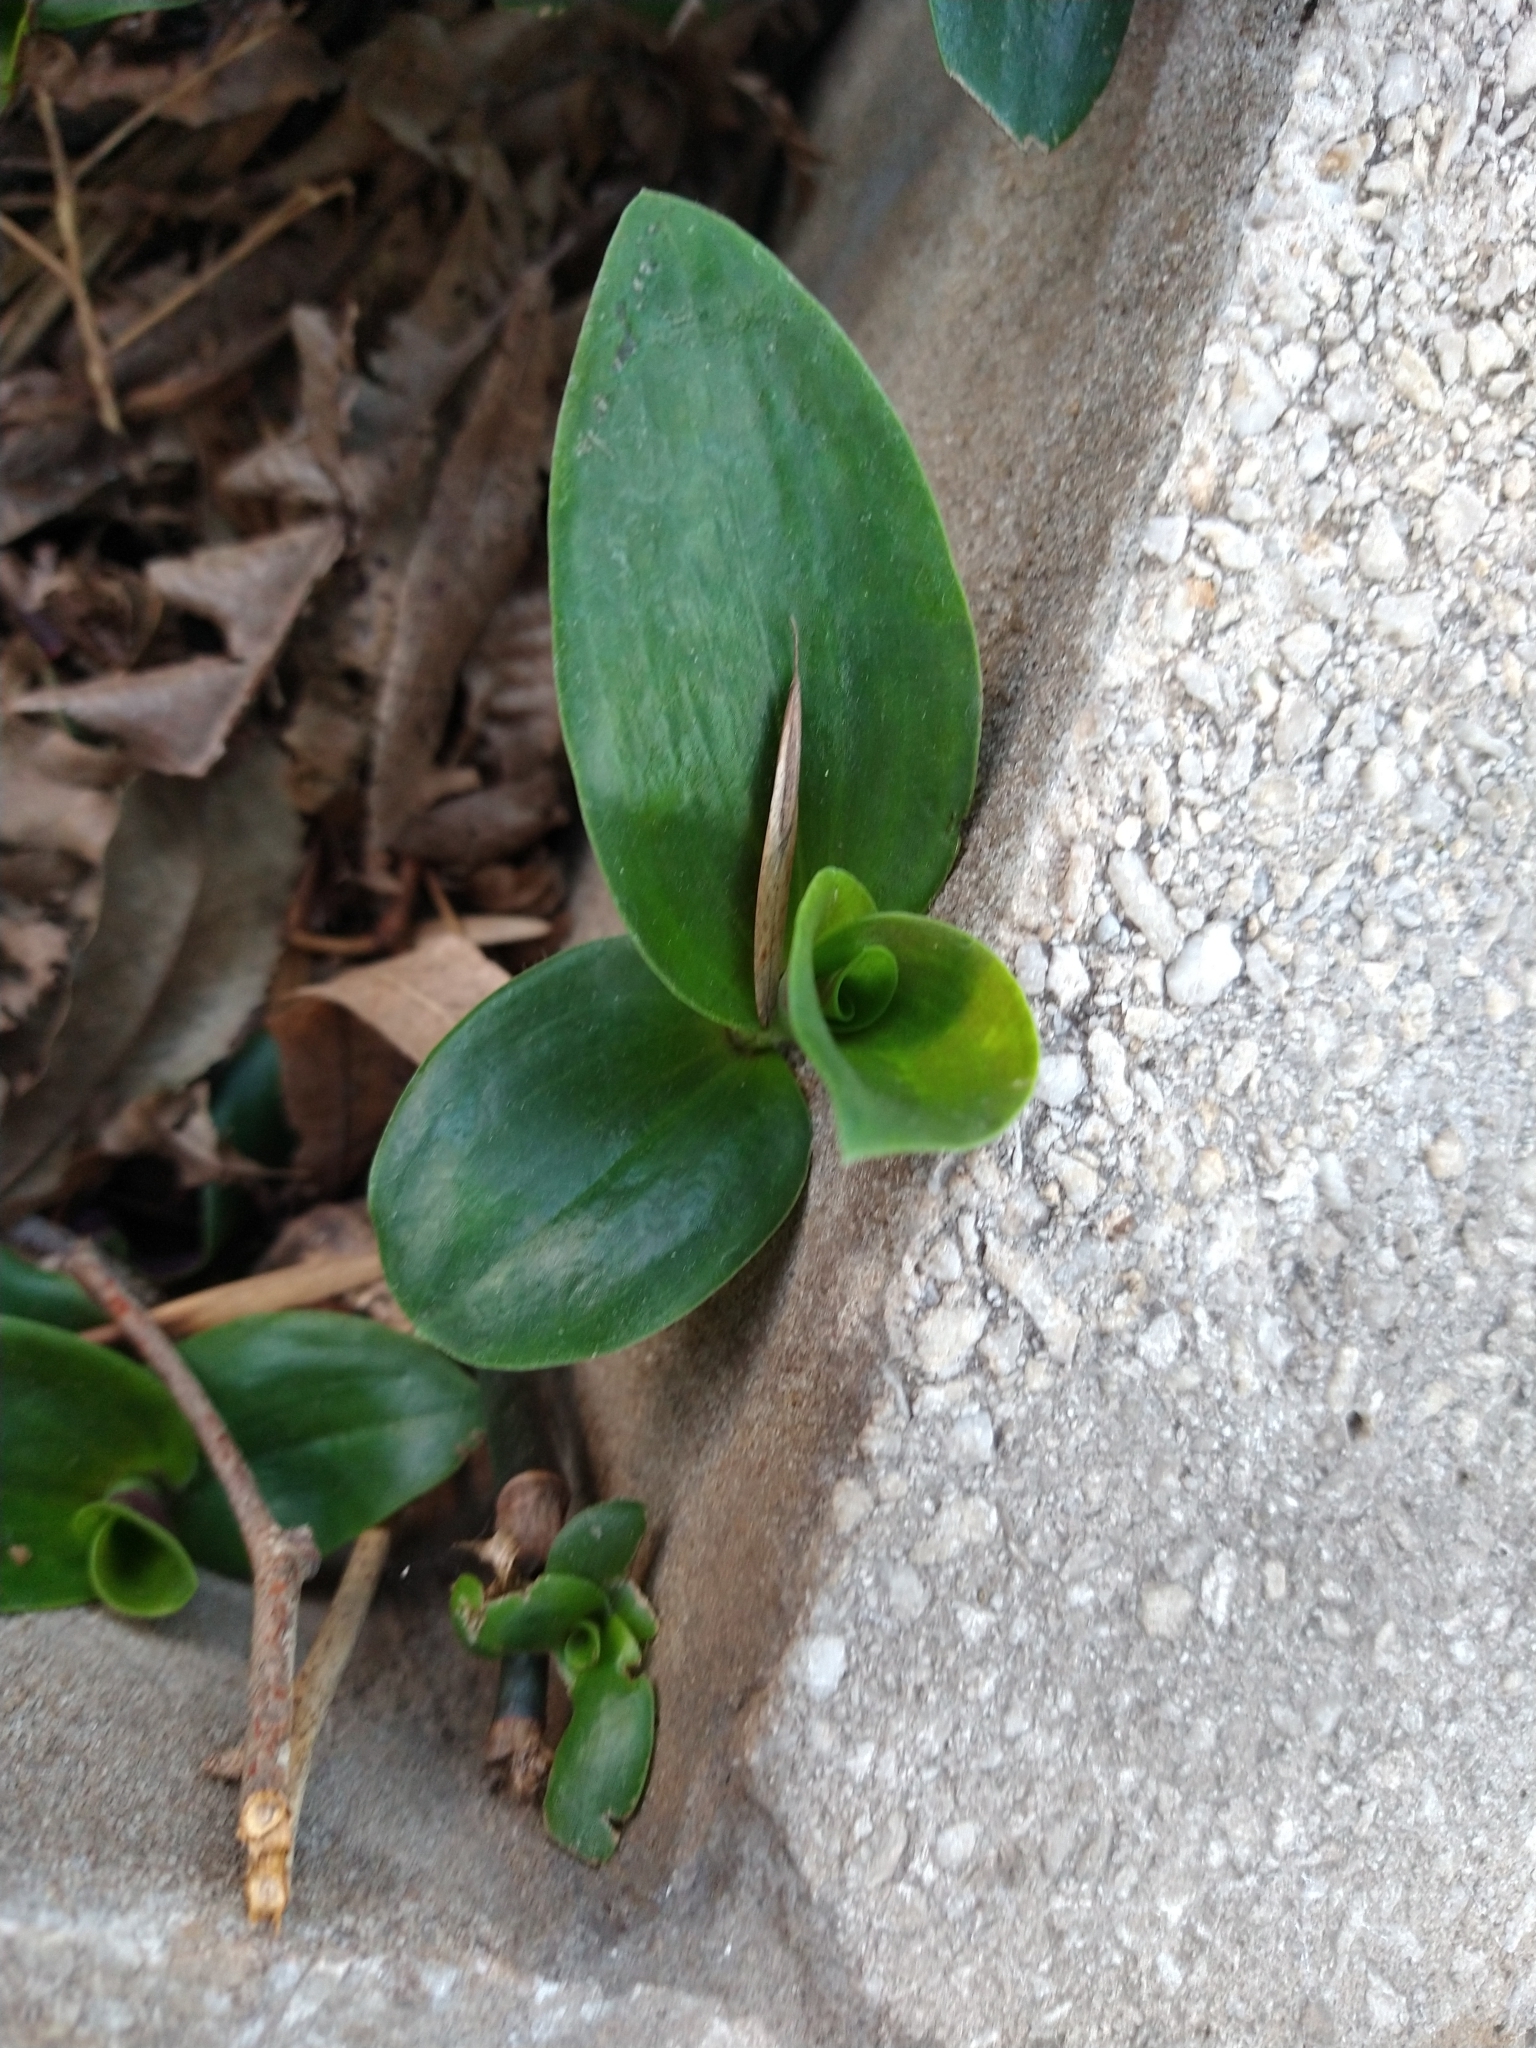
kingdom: Plantae
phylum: Tracheophyta
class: Liliopsida
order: Commelinales
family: Commelinaceae
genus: Callisia
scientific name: Callisia diuretica
